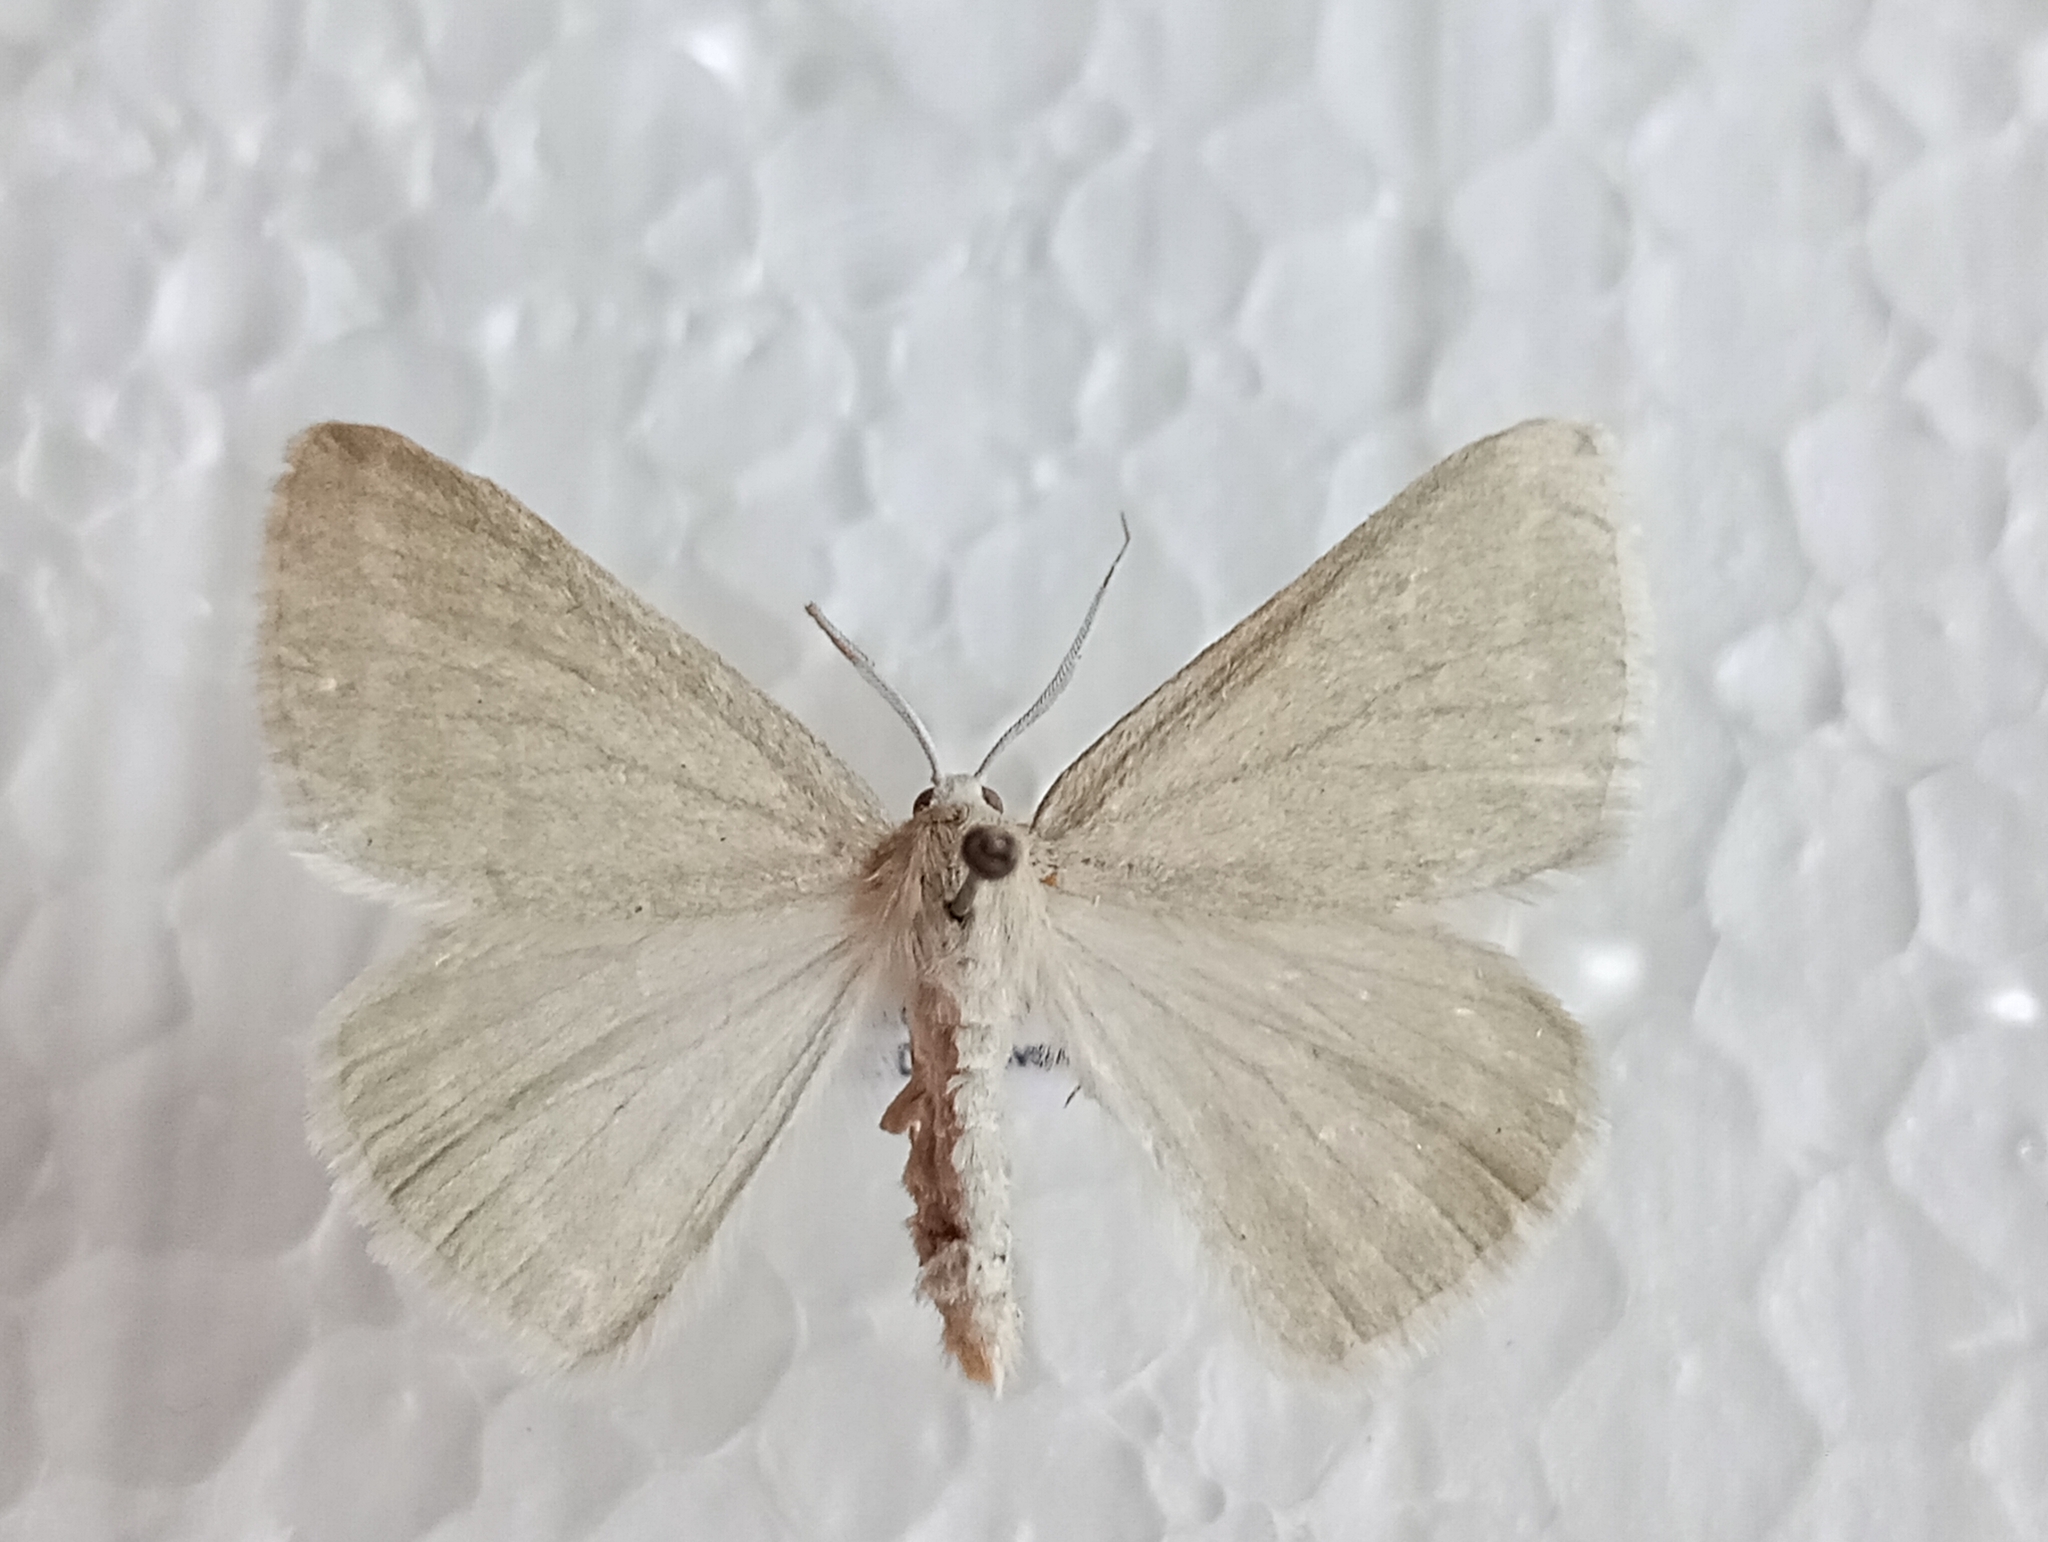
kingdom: Animalia
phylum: Arthropoda
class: Insecta
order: Lepidoptera
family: Geometridae
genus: Pseudoterpna
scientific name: Pseudoterpna pruinata
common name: Grass emerald
